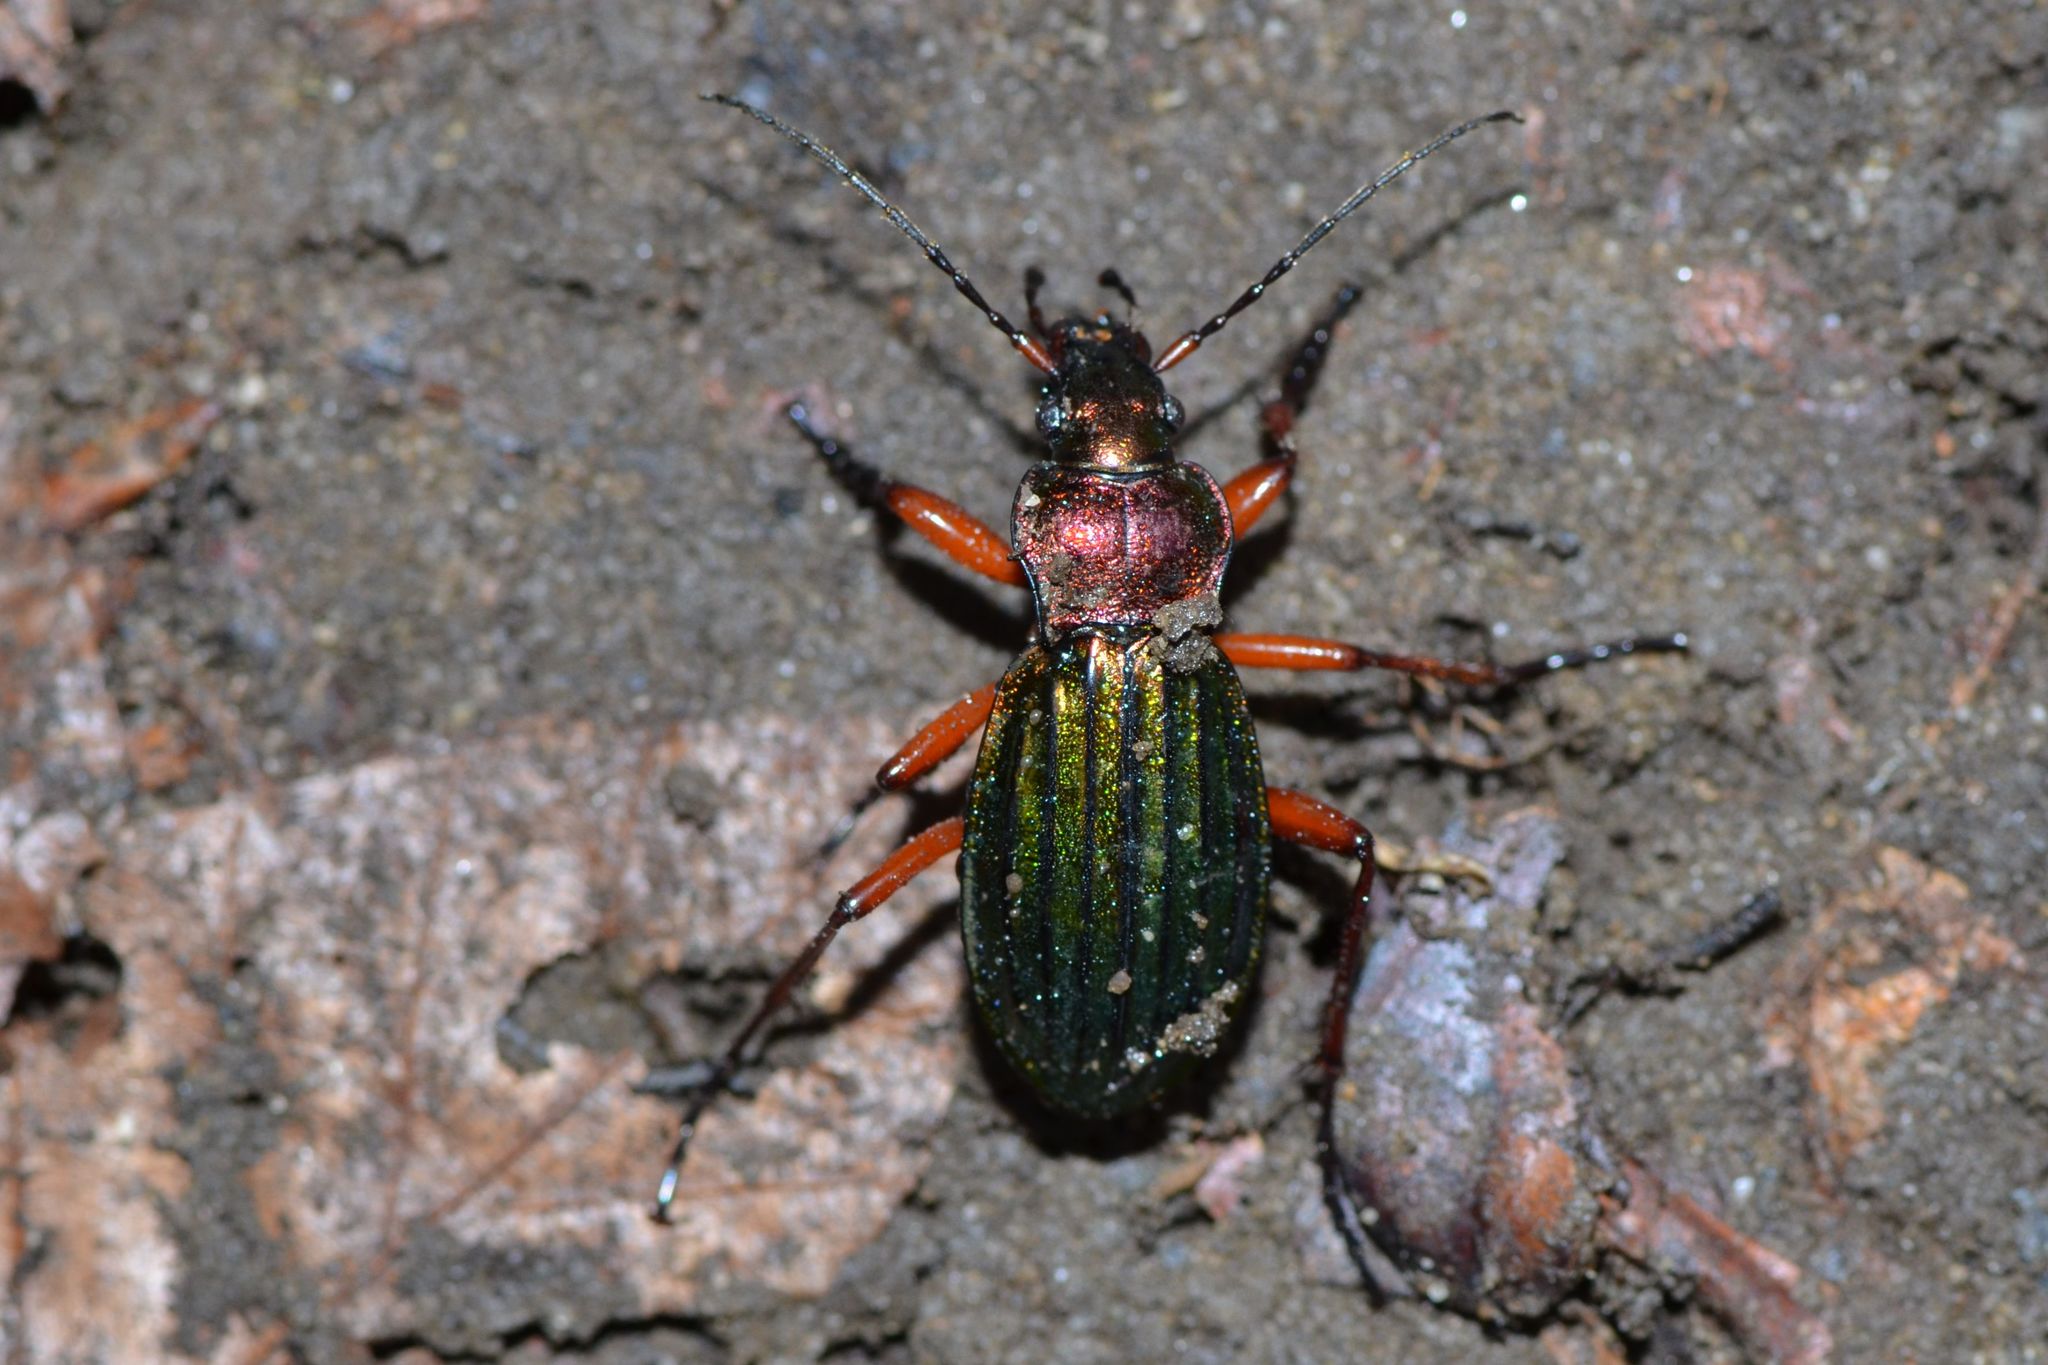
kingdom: Animalia
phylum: Arthropoda
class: Insecta
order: Coleoptera
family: Carabidae
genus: Carabus
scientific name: Carabus auronitens
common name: Carabus auronitens
